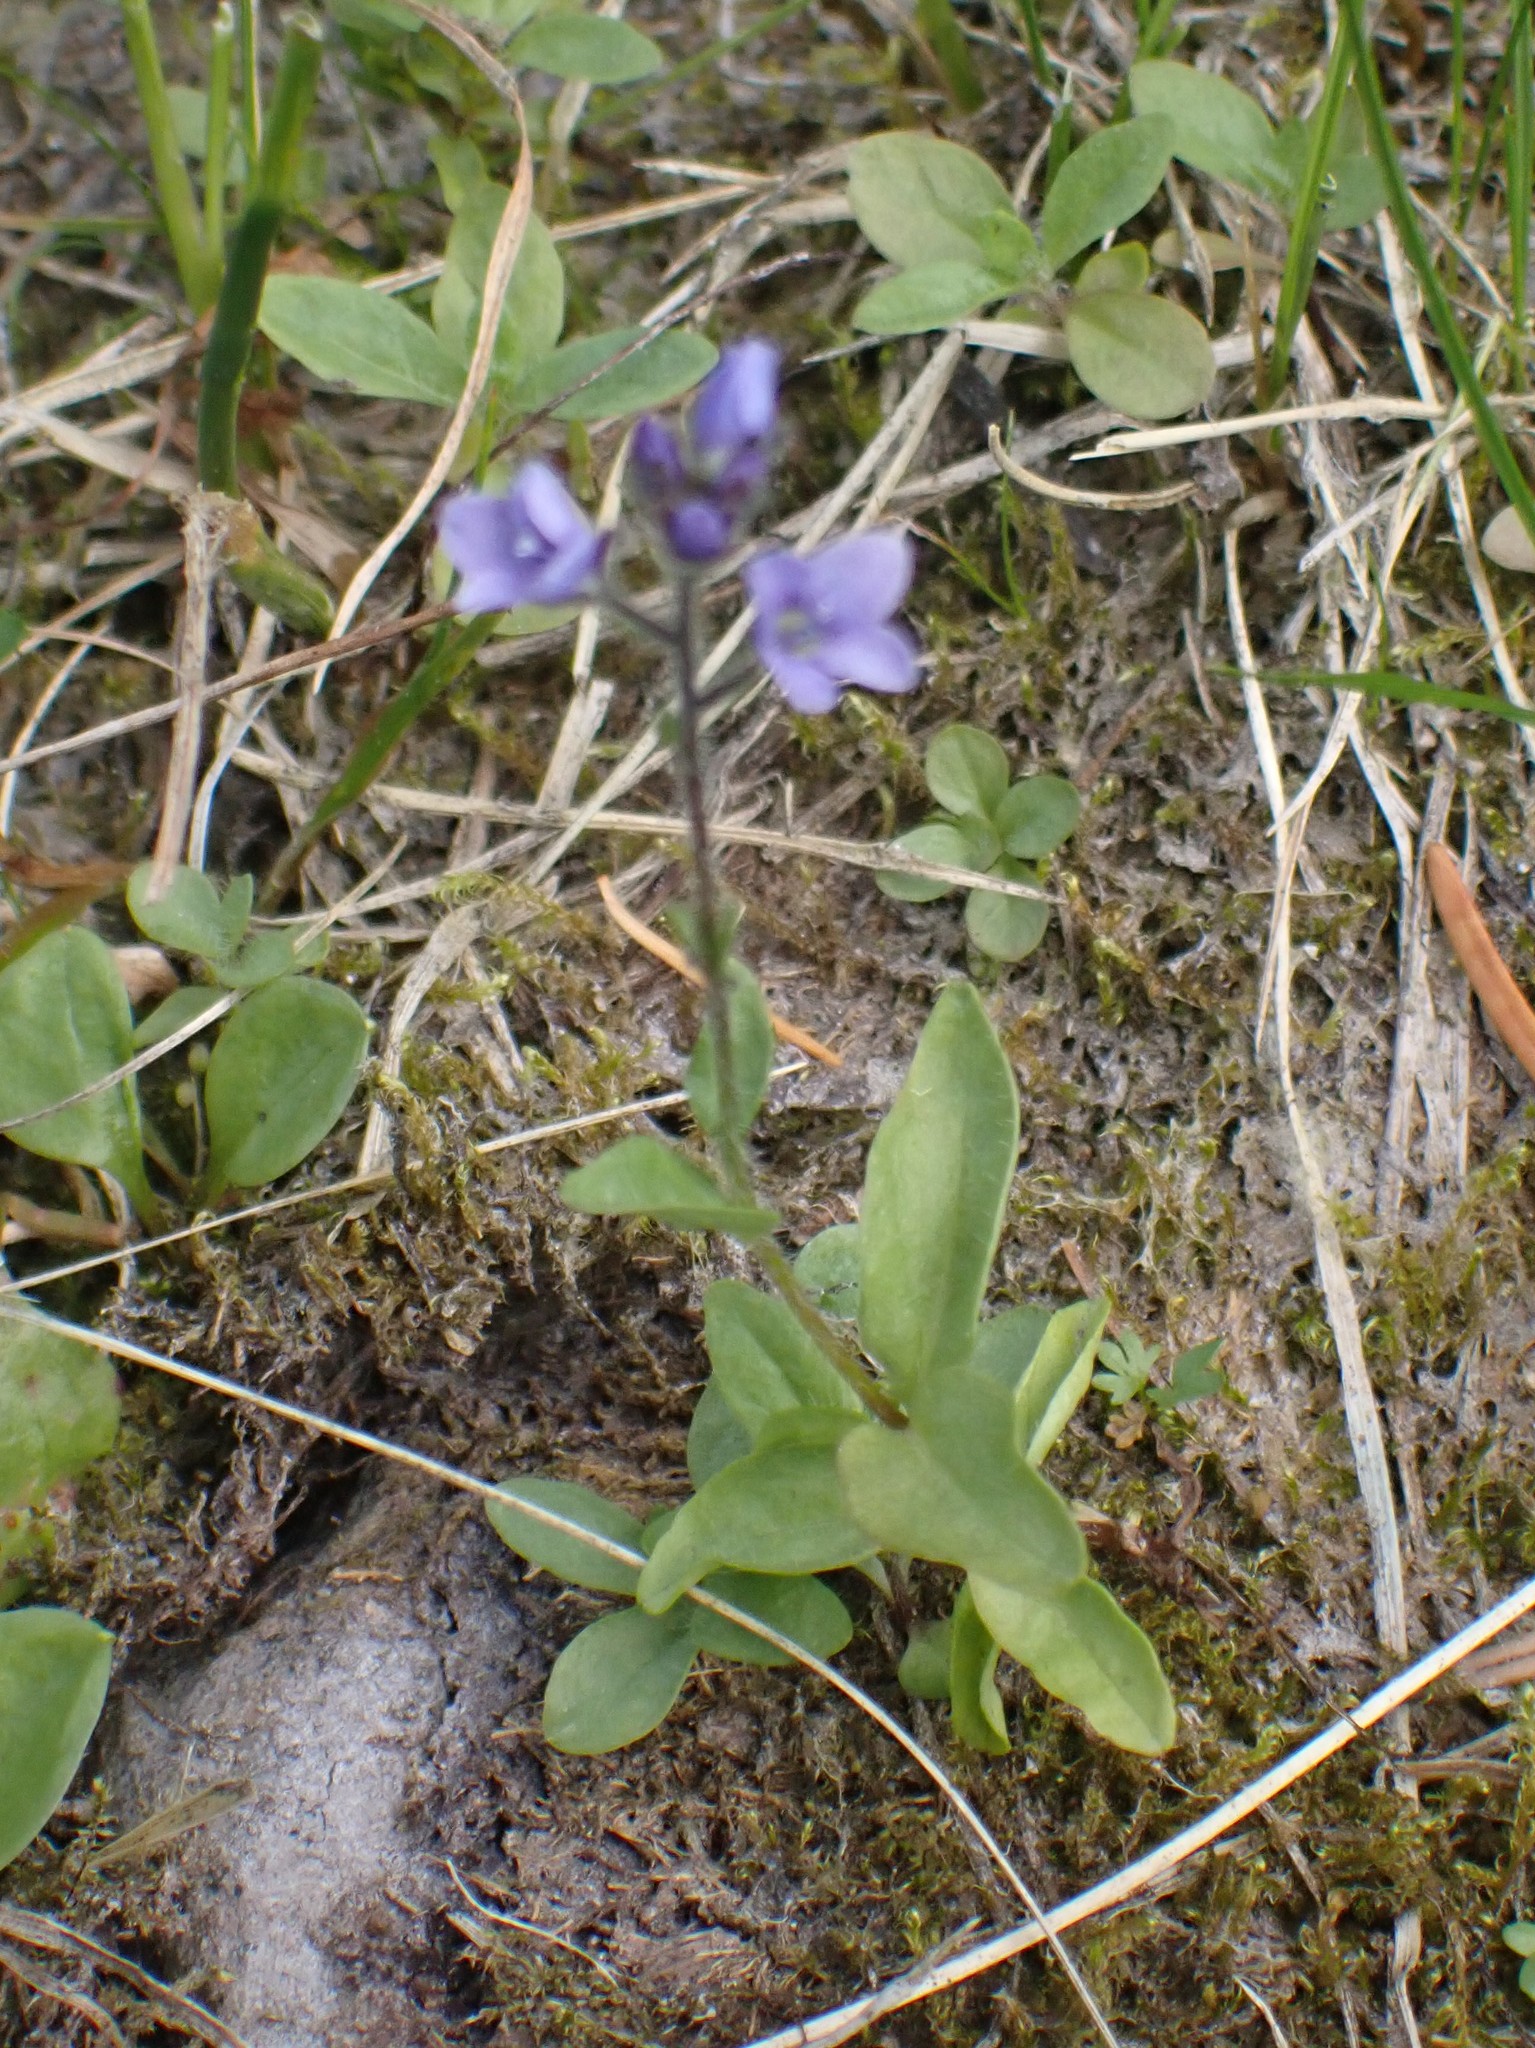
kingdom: Plantae
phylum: Tracheophyta
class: Magnoliopsida
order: Lamiales
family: Plantaginaceae
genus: Veronica
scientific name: Veronica wormskjoldii
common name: American alpine speedwell
